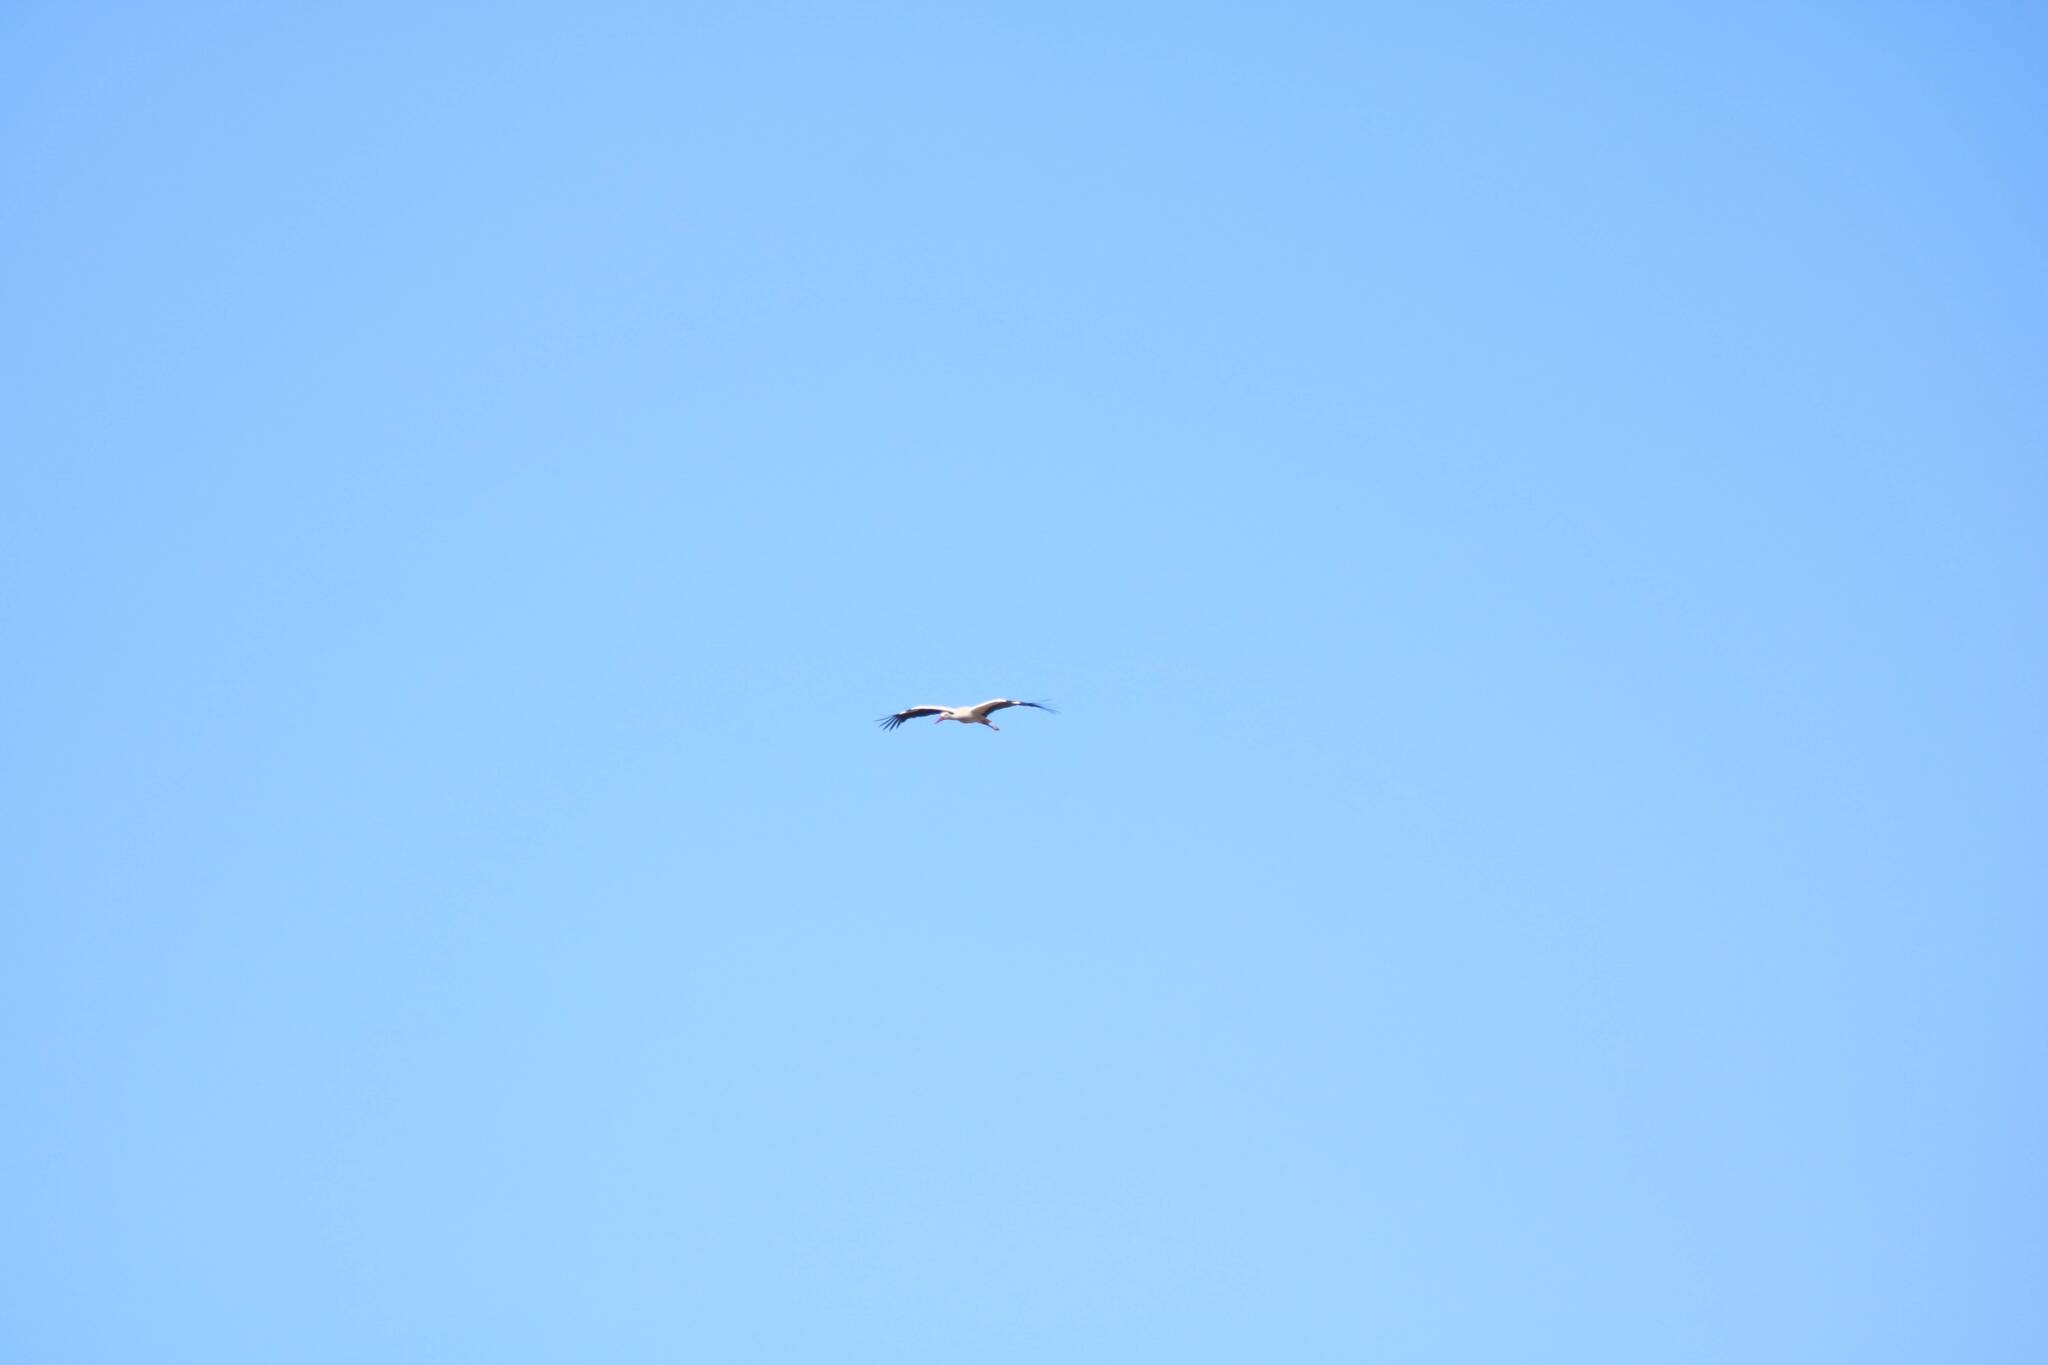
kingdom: Animalia
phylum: Chordata
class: Aves
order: Ciconiiformes
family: Ciconiidae
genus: Ciconia
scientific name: Ciconia ciconia
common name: White stork
